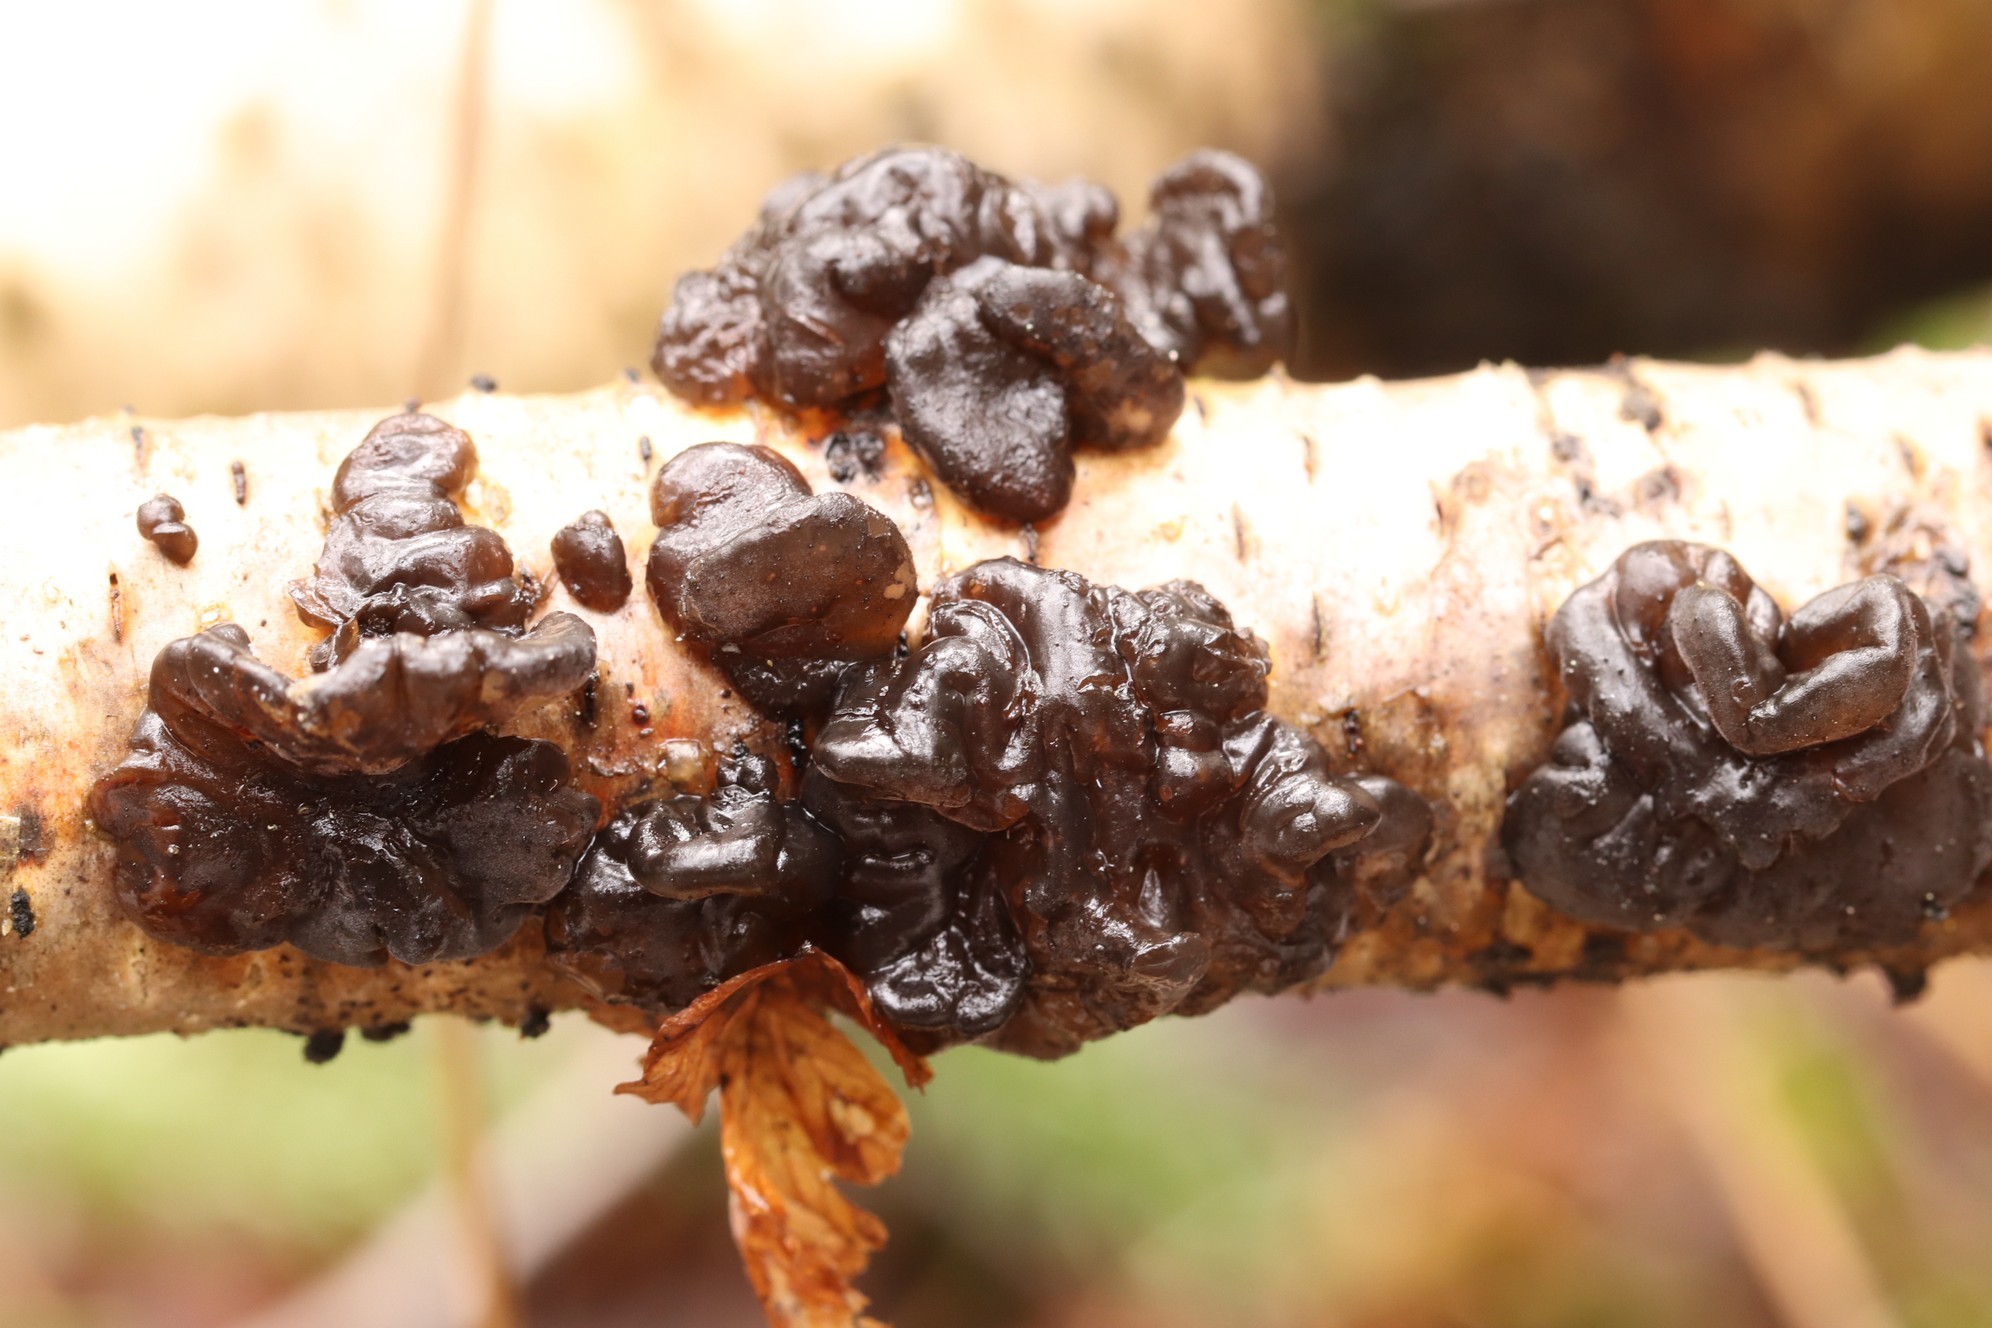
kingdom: Fungi
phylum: Basidiomycota
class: Agaricomycetes
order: Auriculariales
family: Auriculariaceae
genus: Exidia
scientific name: Exidia glandulosa
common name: Witches' butter
